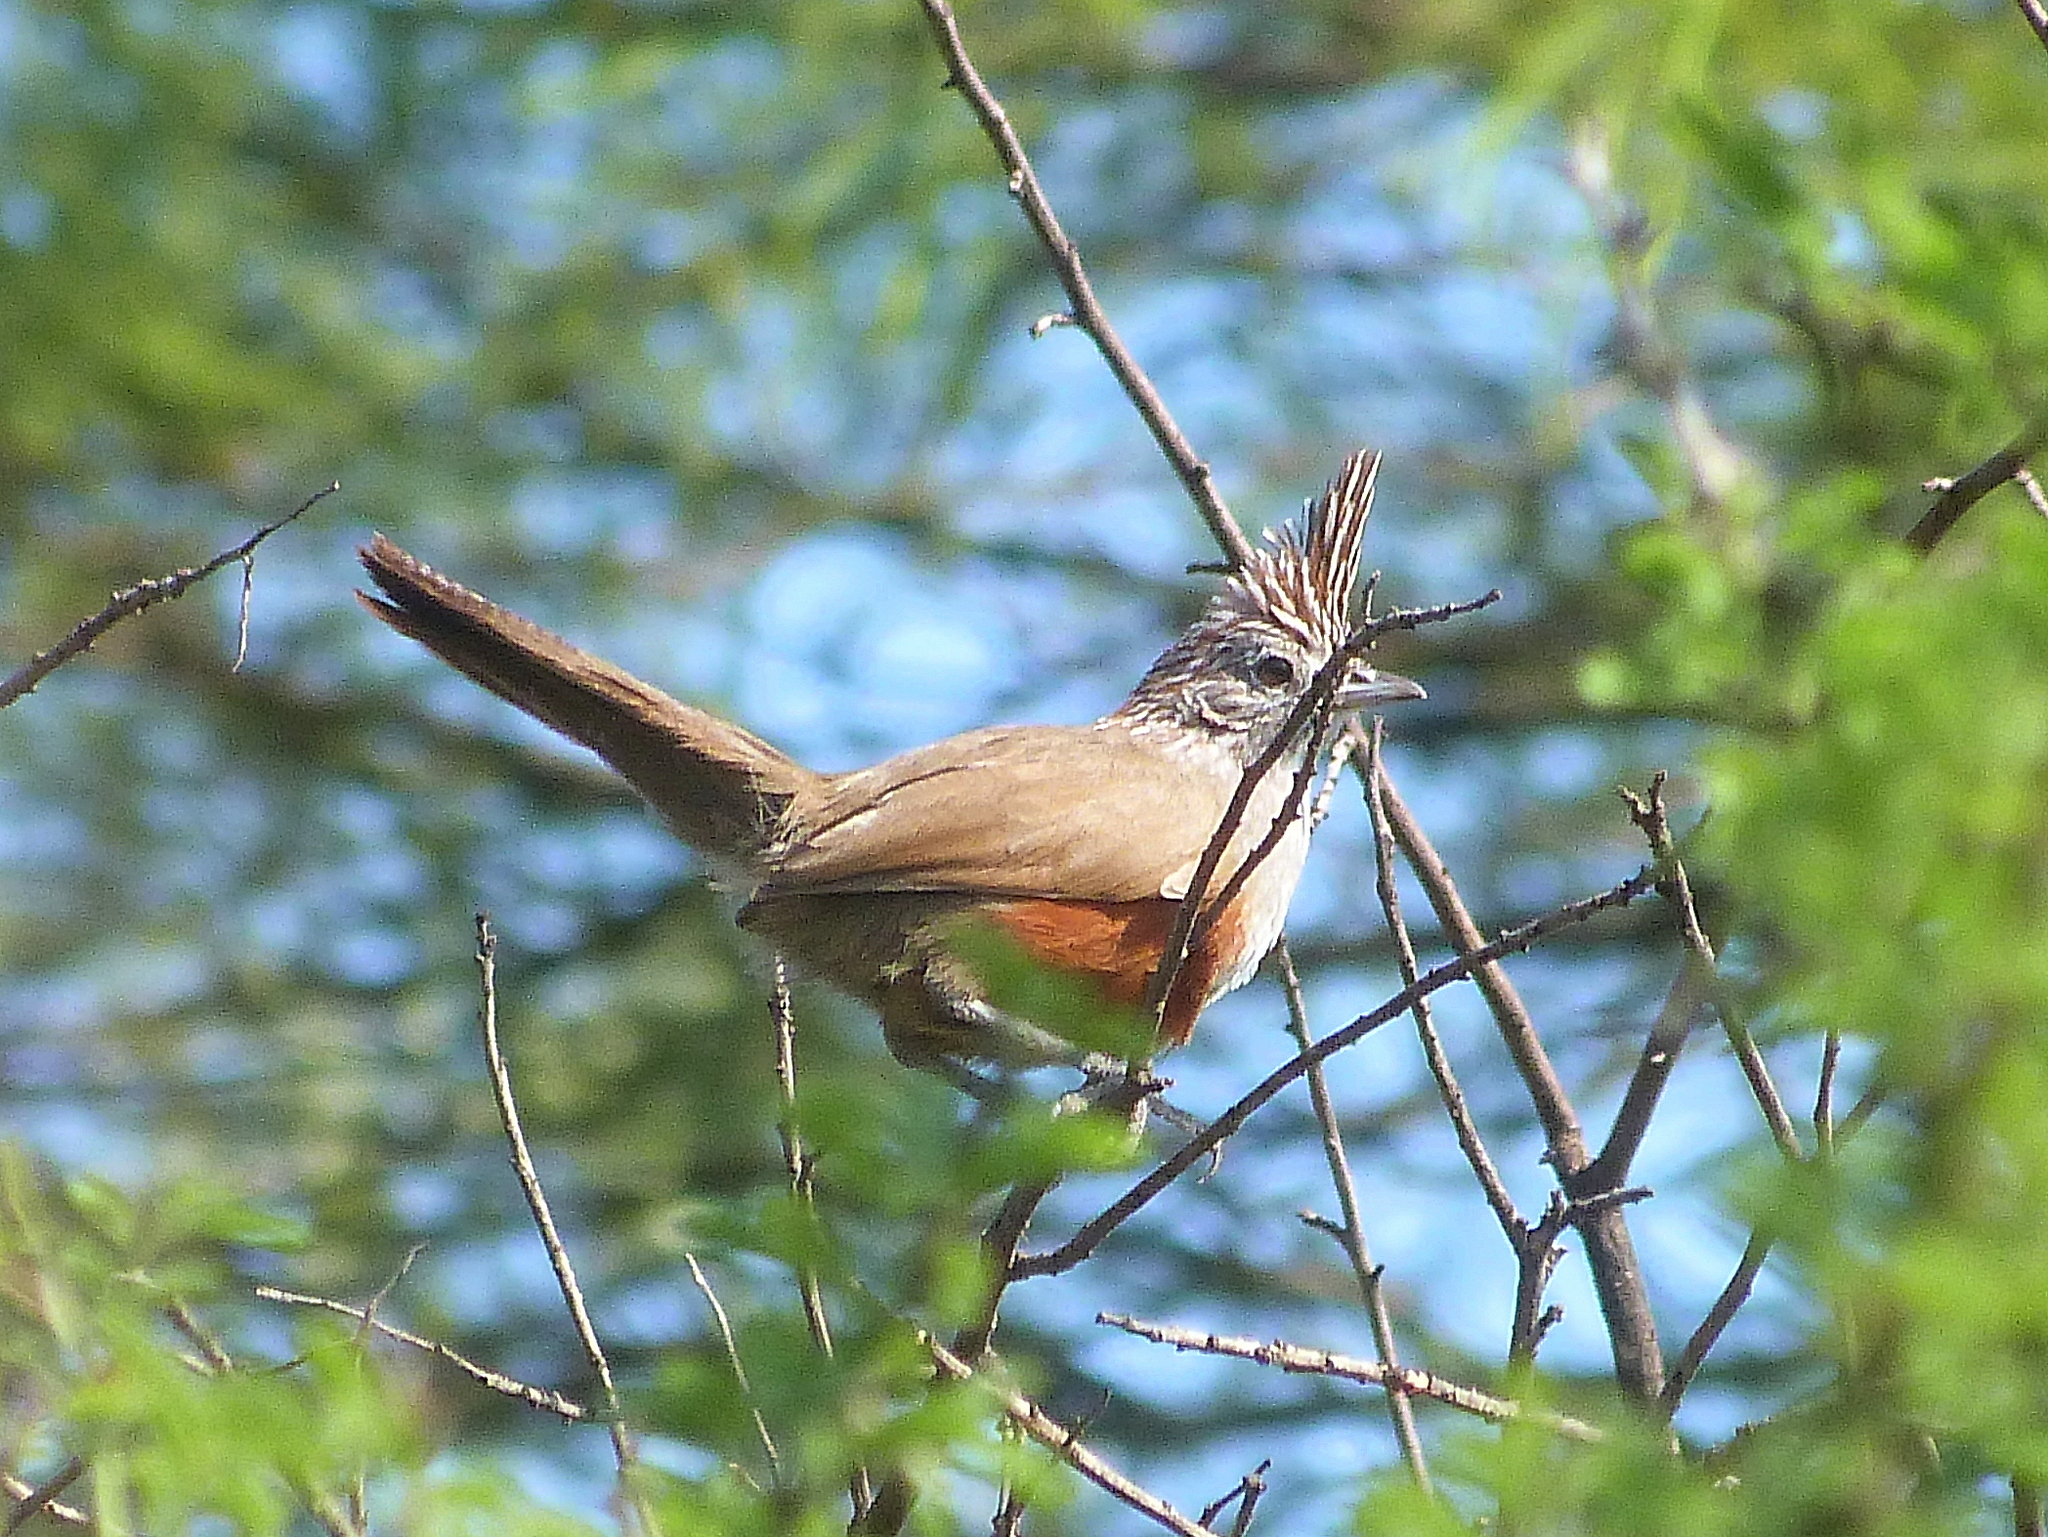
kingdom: Animalia
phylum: Chordata
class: Aves
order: Passeriformes
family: Rhinocryptidae
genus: Rhinocrypta
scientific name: Rhinocrypta lanceolata
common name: Crested gallito
